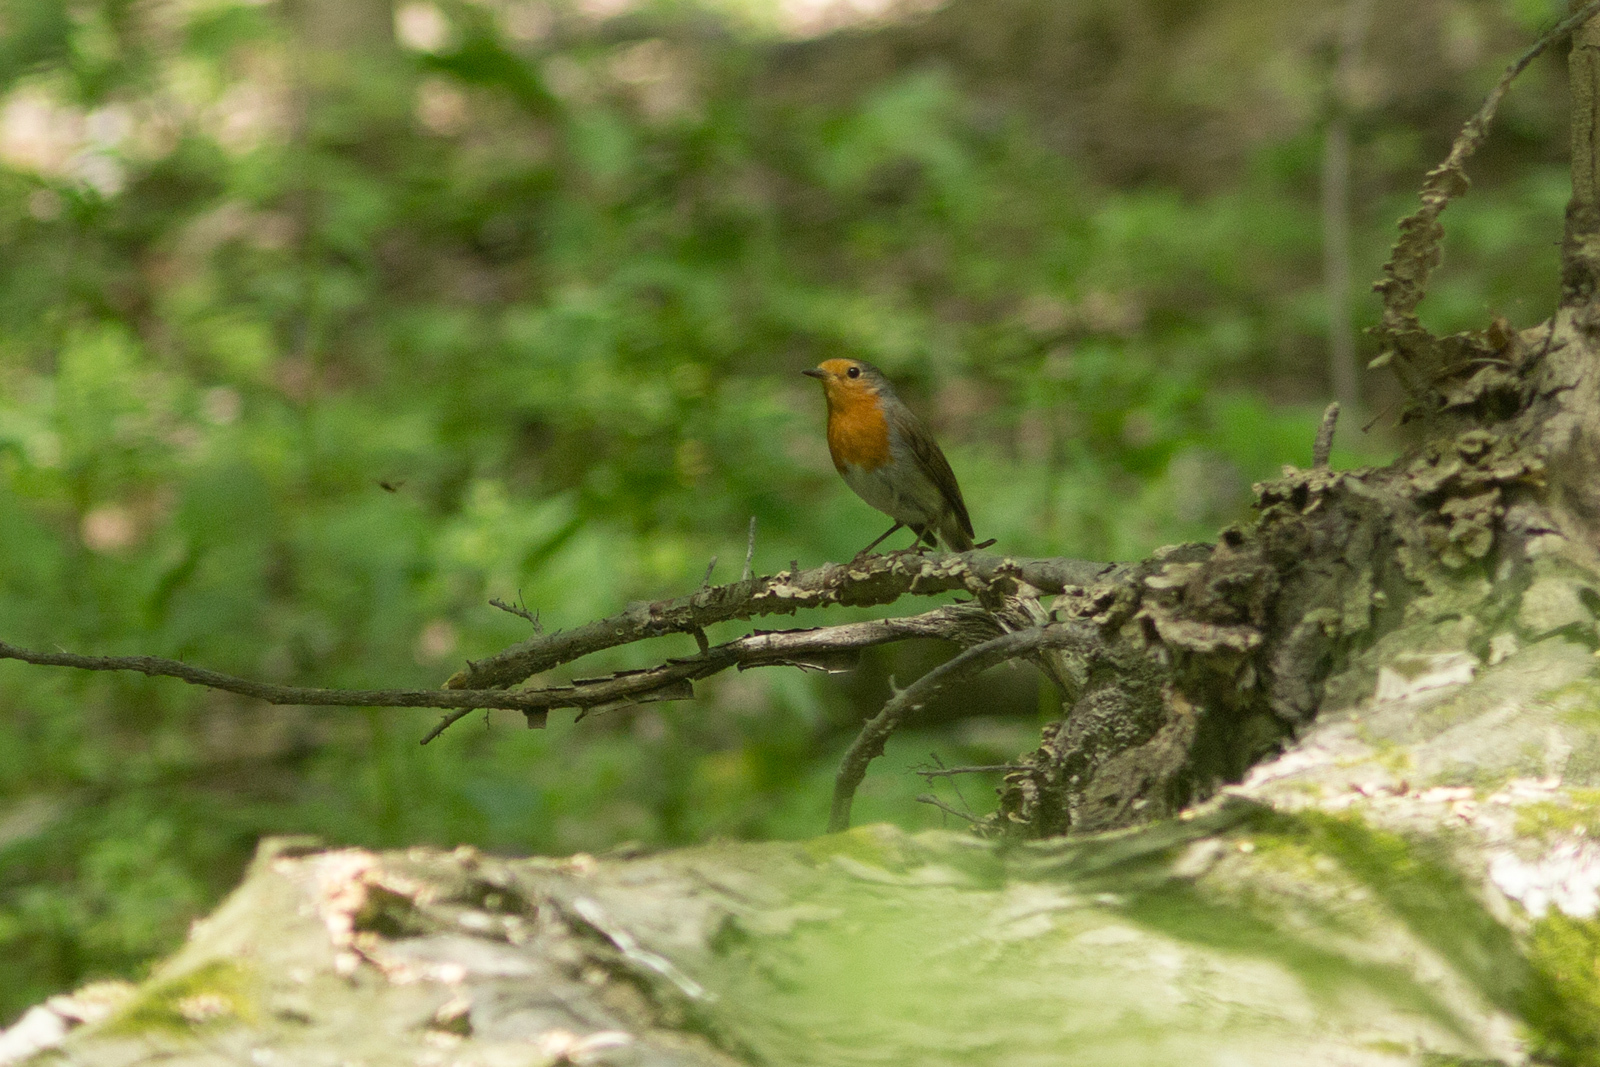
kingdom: Animalia
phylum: Chordata
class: Aves
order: Passeriformes
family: Muscicapidae
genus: Erithacus
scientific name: Erithacus rubecula
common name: European robin
